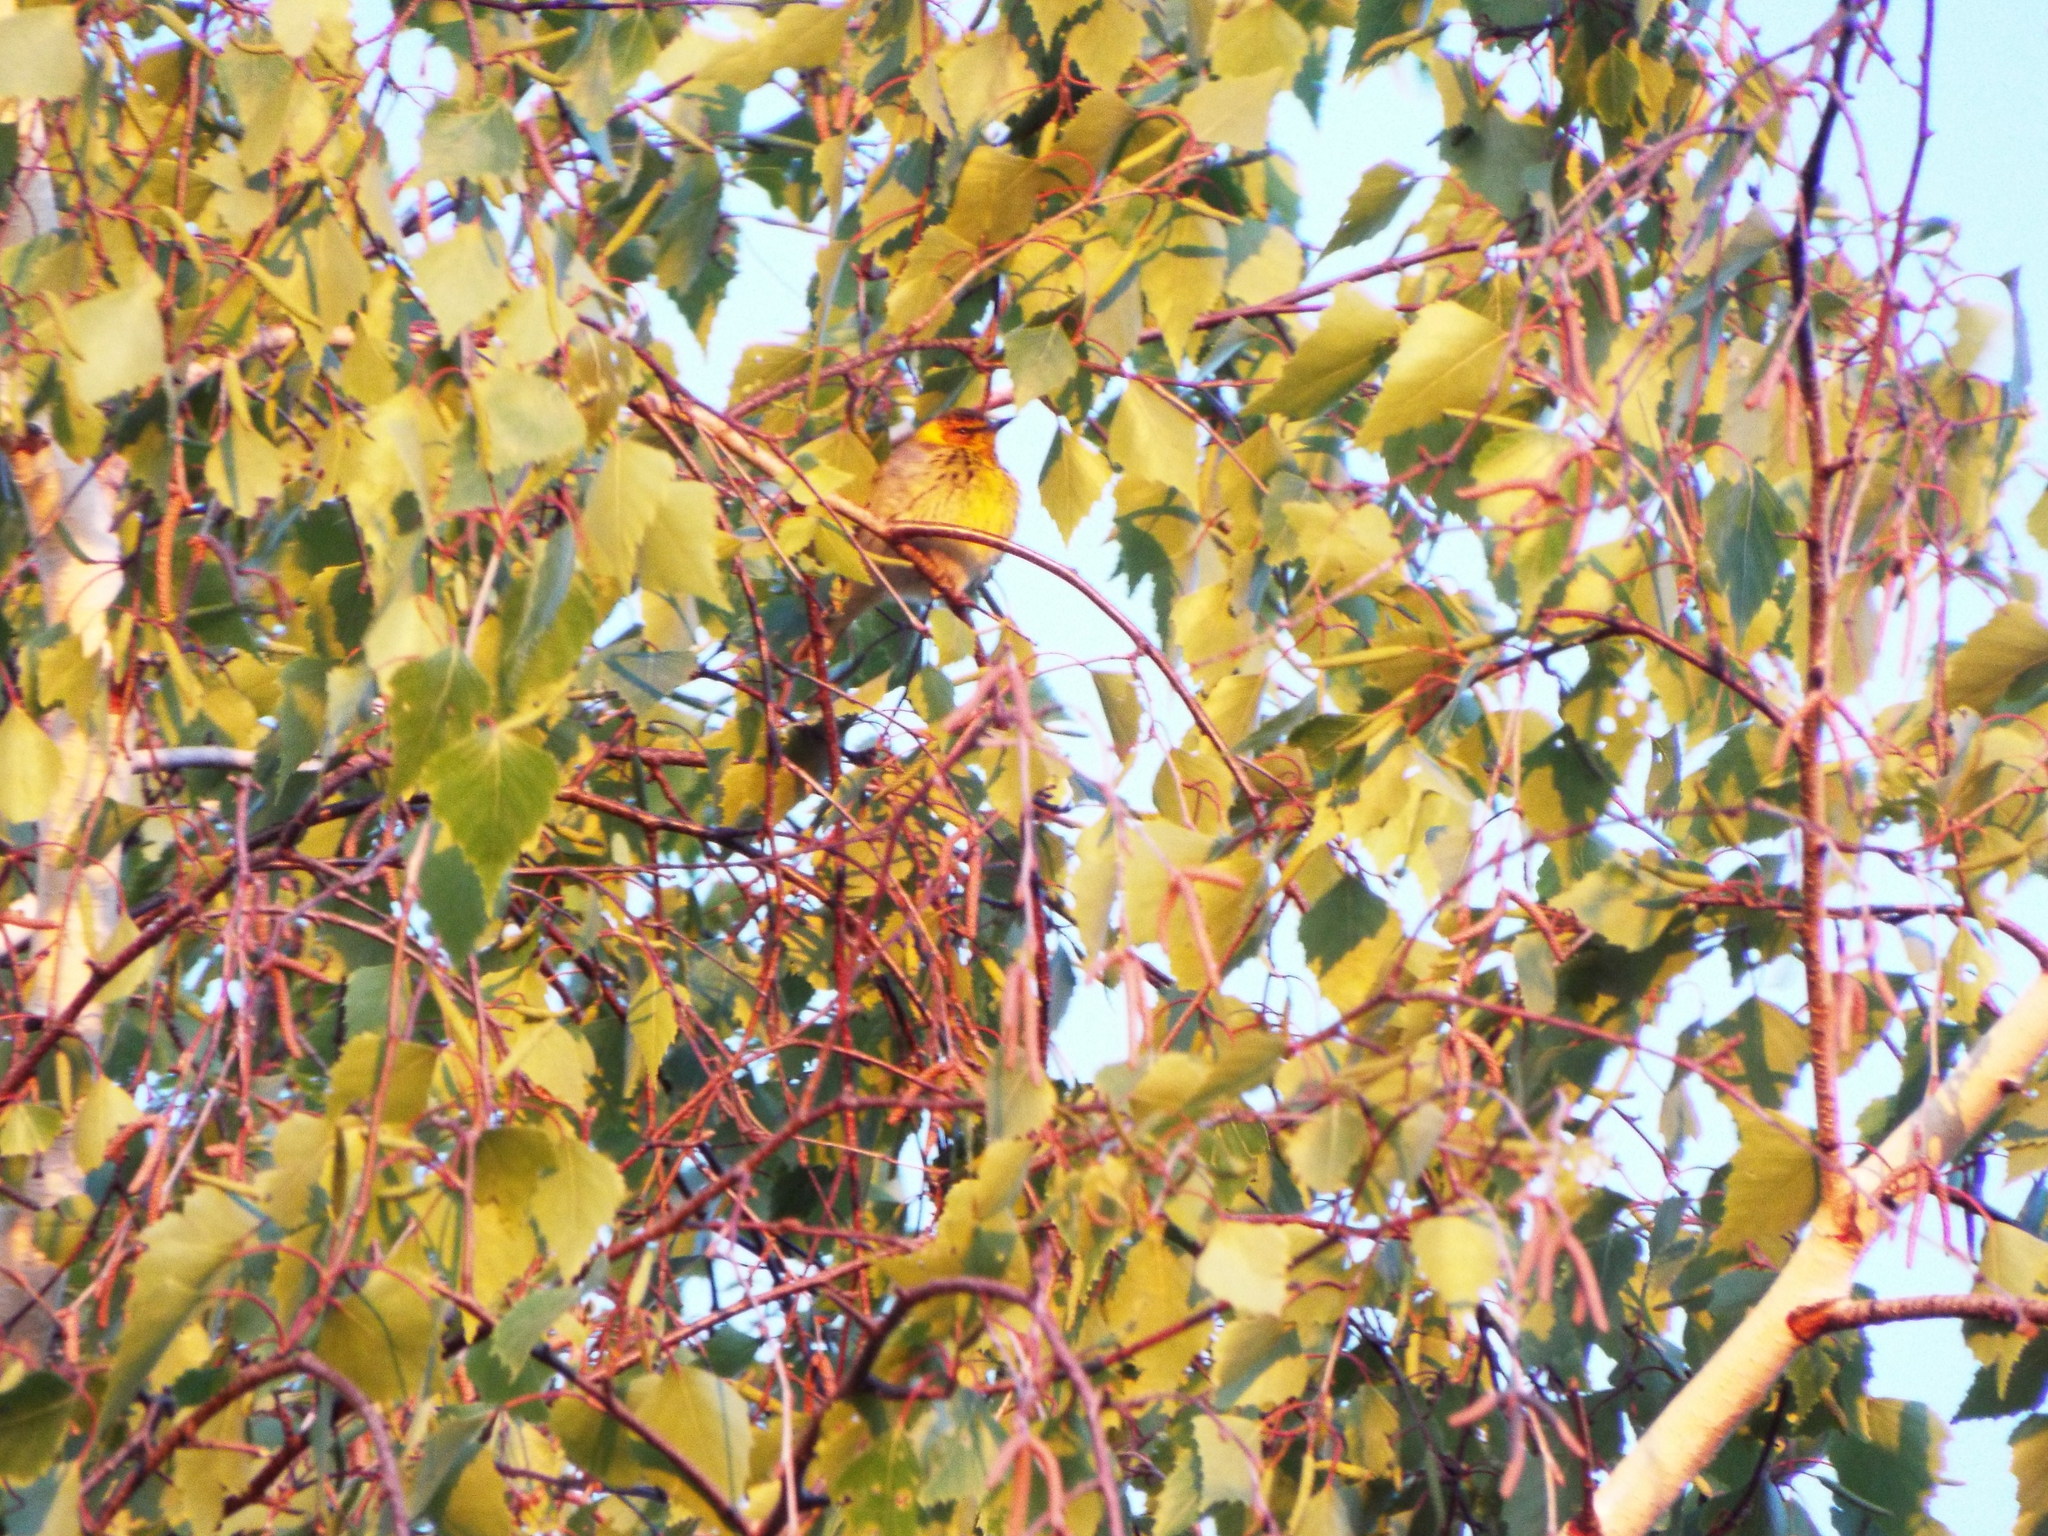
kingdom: Animalia
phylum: Chordata
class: Aves
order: Passeriformes
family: Parulidae
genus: Setophaga
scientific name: Setophaga tigrina
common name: Cape may warbler
